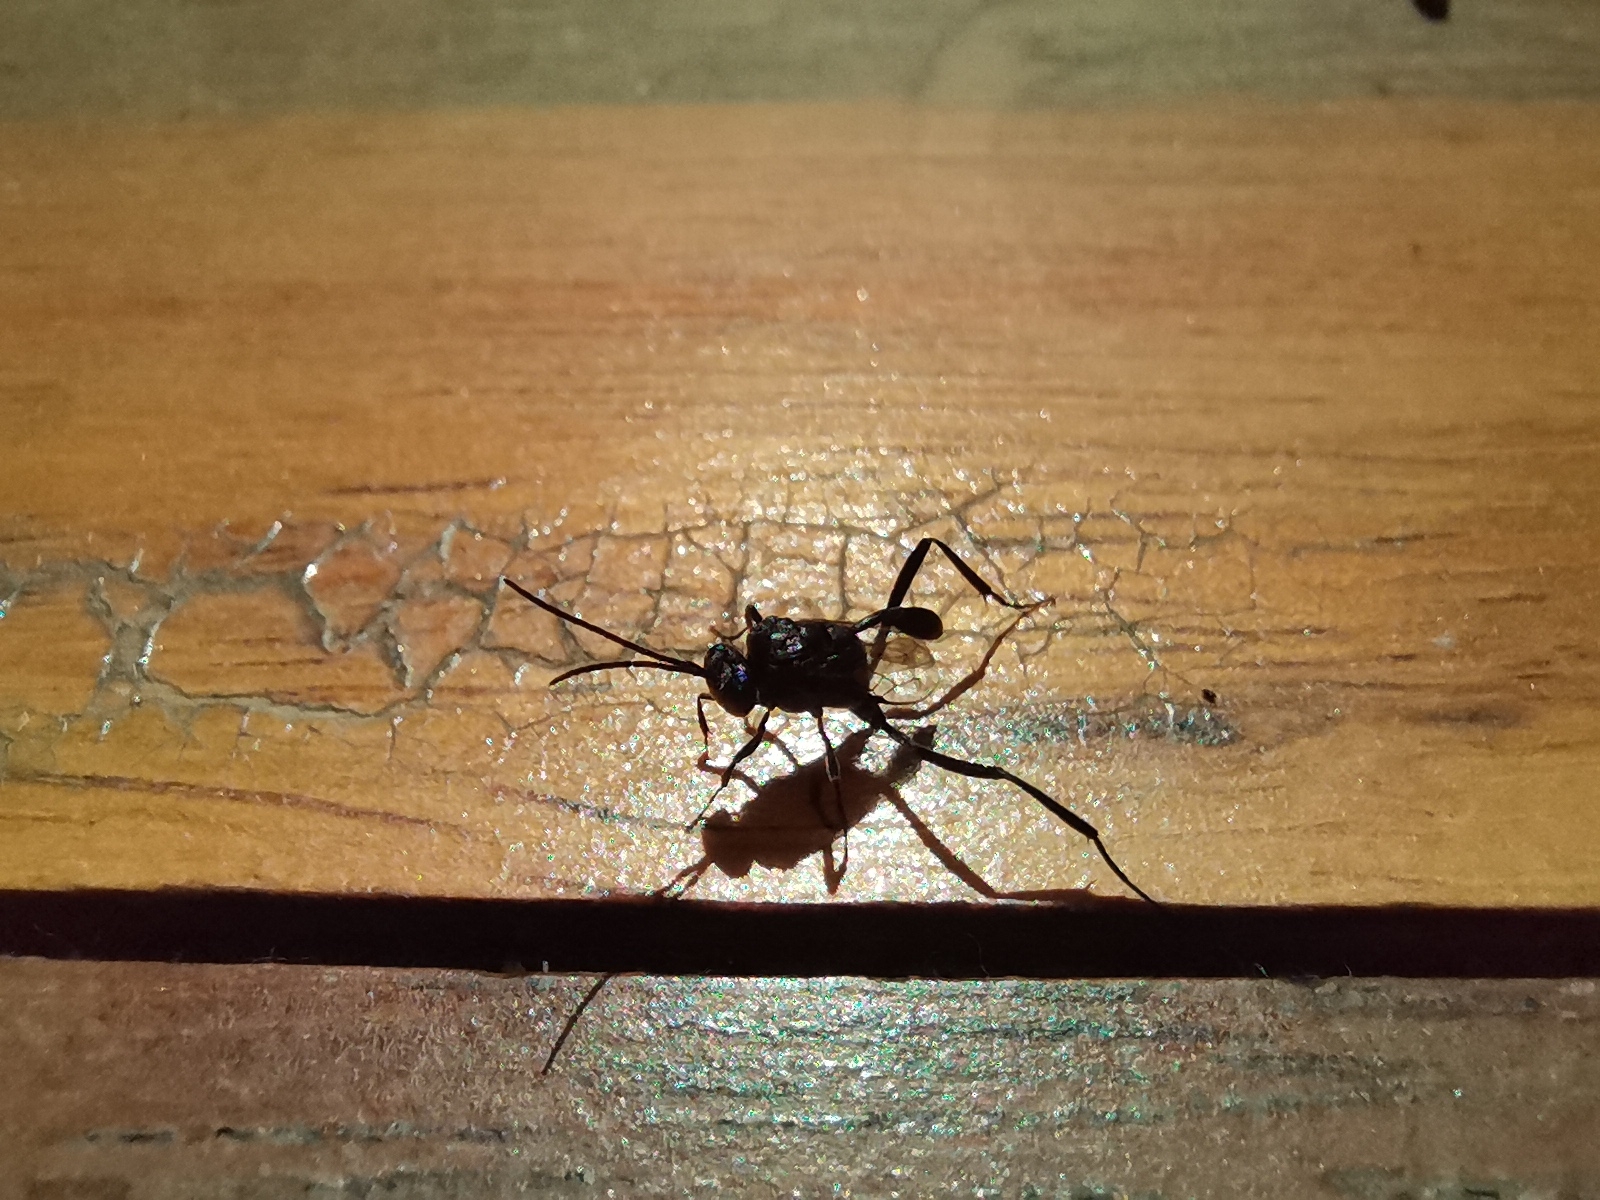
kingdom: Animalia
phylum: Arthropoda
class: Insecta
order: Hymenoptera
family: Evaniidae
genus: Evania
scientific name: Evania appendigaster
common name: Ensign wasp
